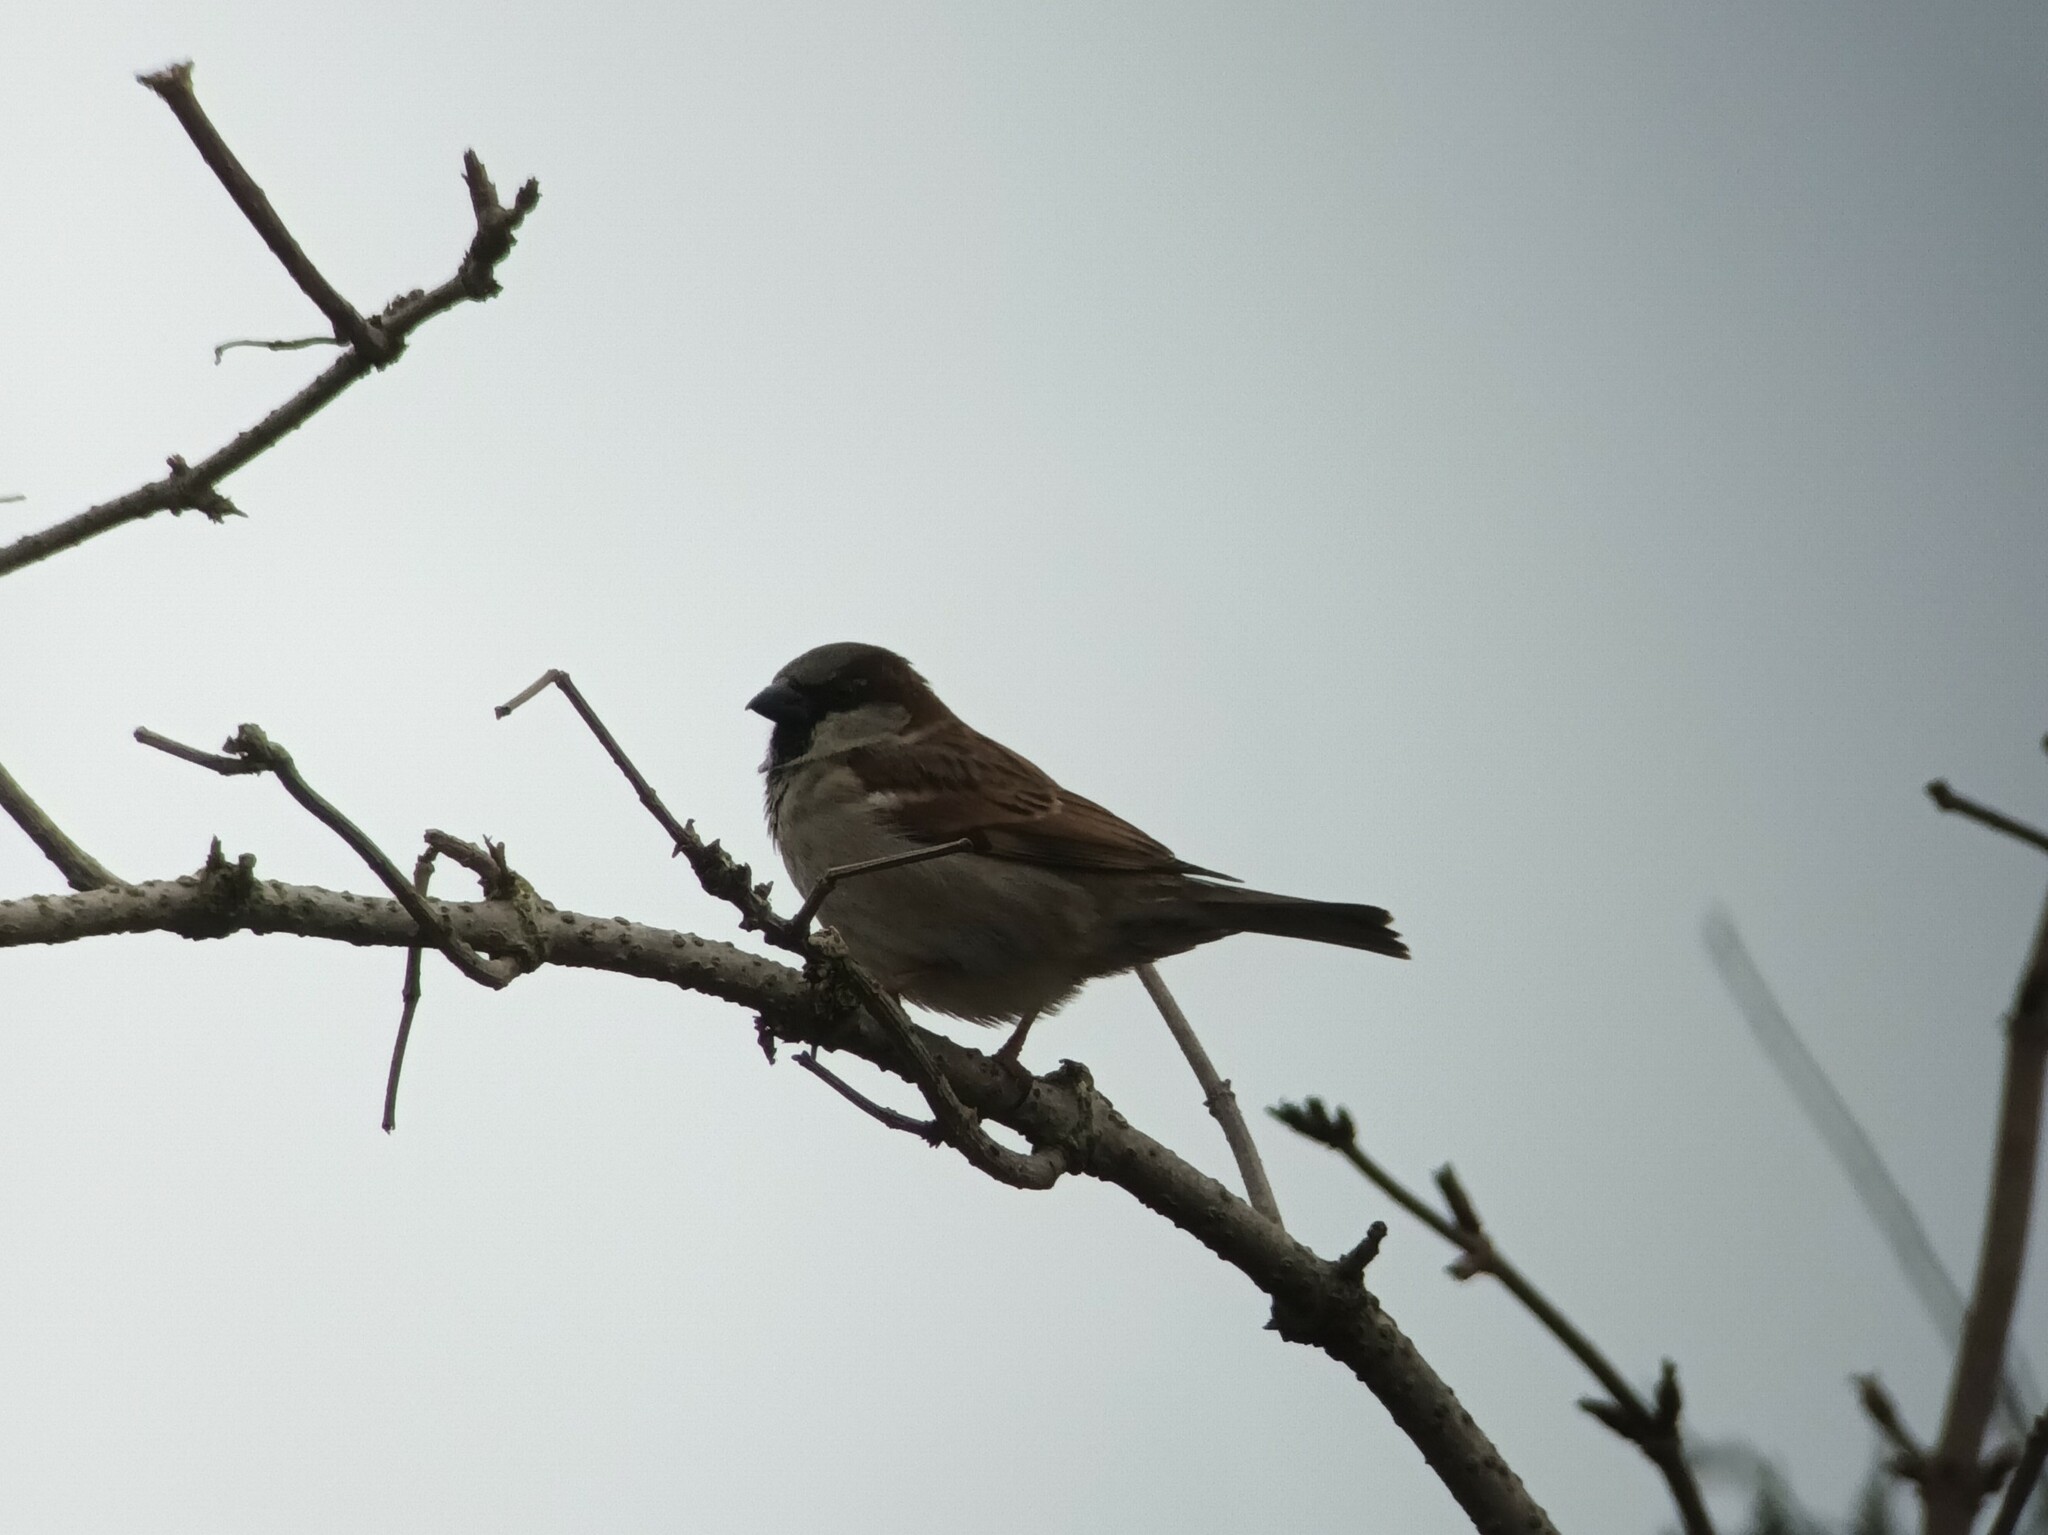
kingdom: Animalia
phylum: Chordata
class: Aves
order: Passeriformes
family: Passeridae
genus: Passer
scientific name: Passer domesticus
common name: House sparrow
